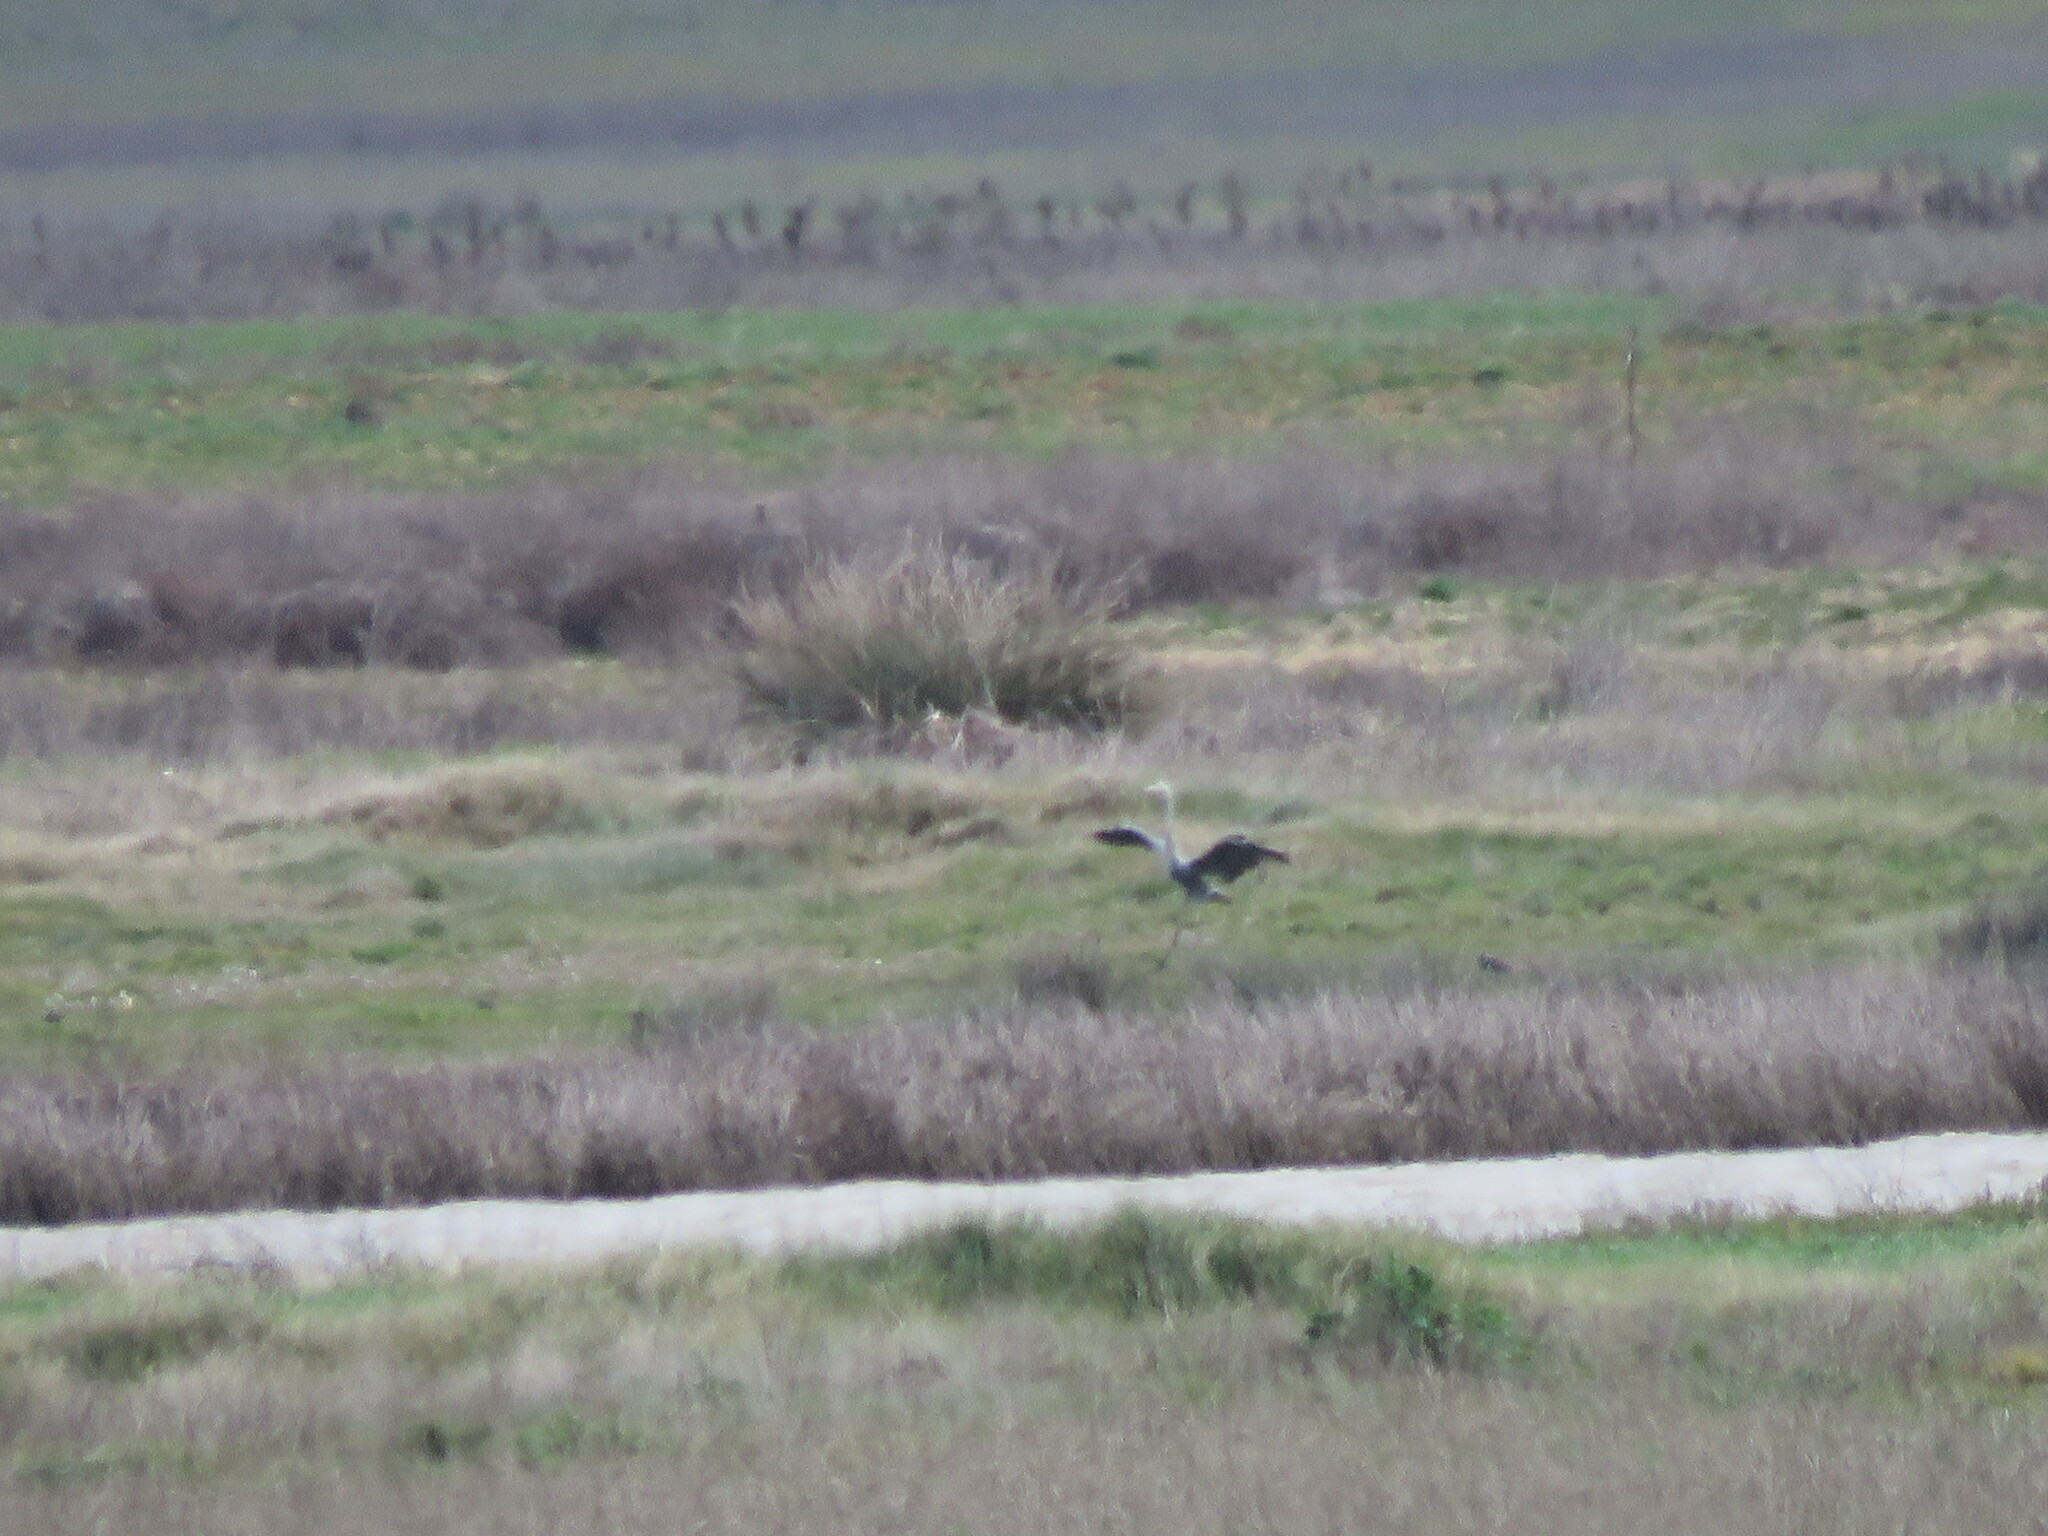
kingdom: Animalia
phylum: Chordata
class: Aves
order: Pelecaniformes
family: Ardeidae
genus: Ardea
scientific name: Ardea cinerea
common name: Grey heron
